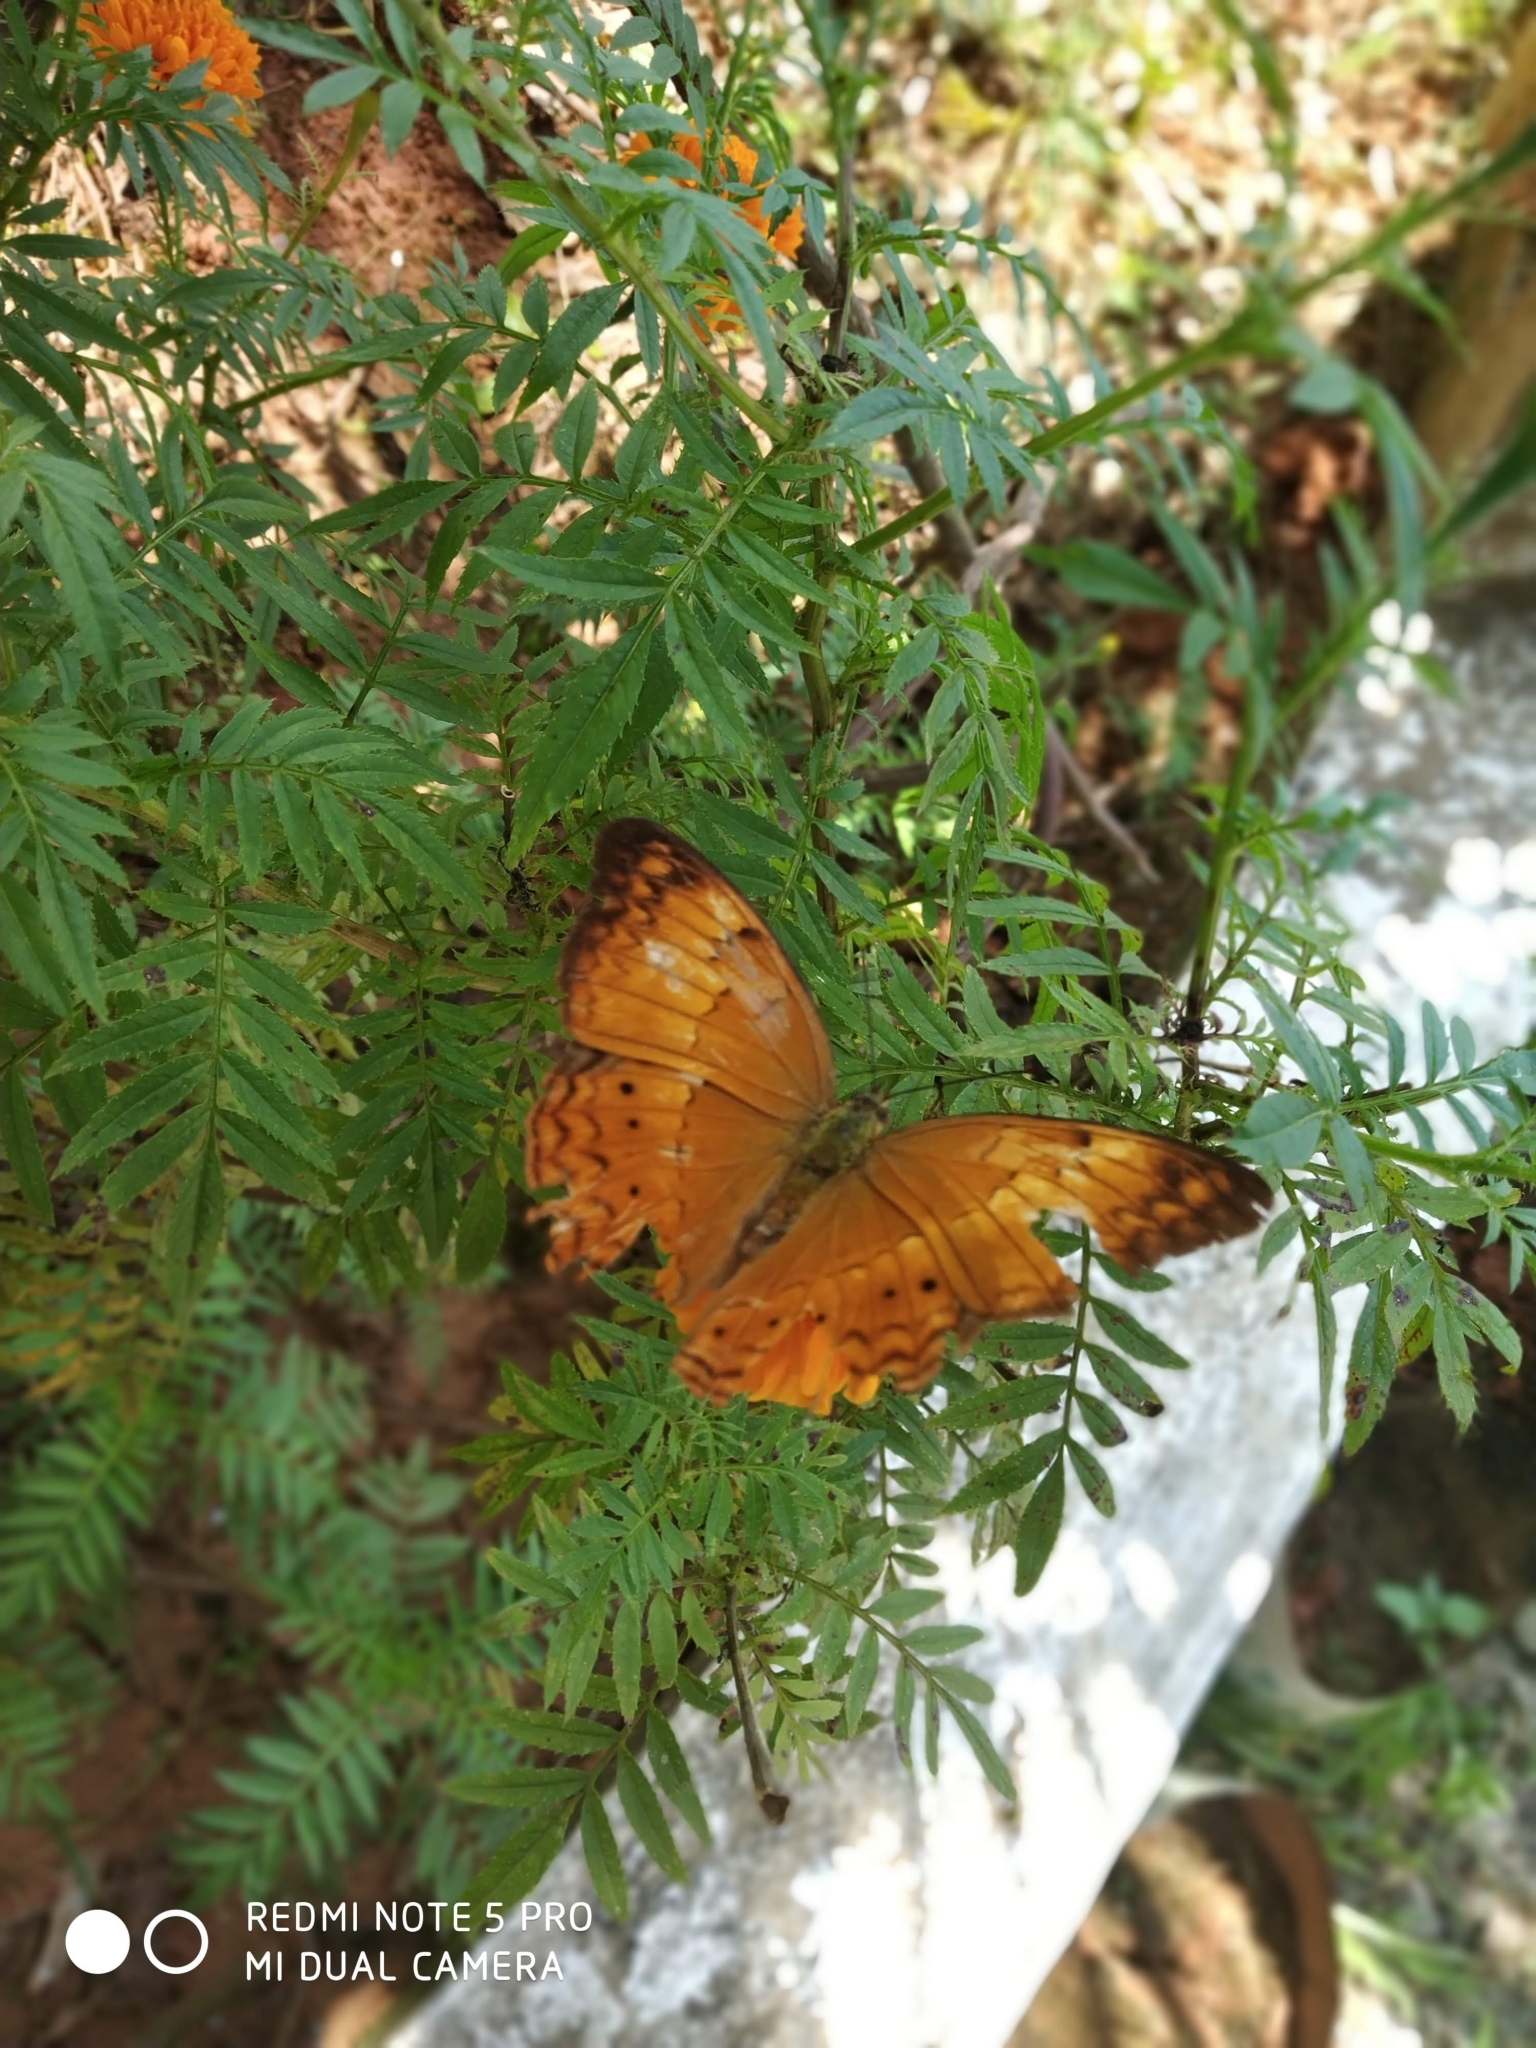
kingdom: Animalia
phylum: Arthropoda
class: Insecta
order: Lepidoptera
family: Nymphalidae
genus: Cirrochroa
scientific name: Cirrochroa thais
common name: Tamil yeoman
